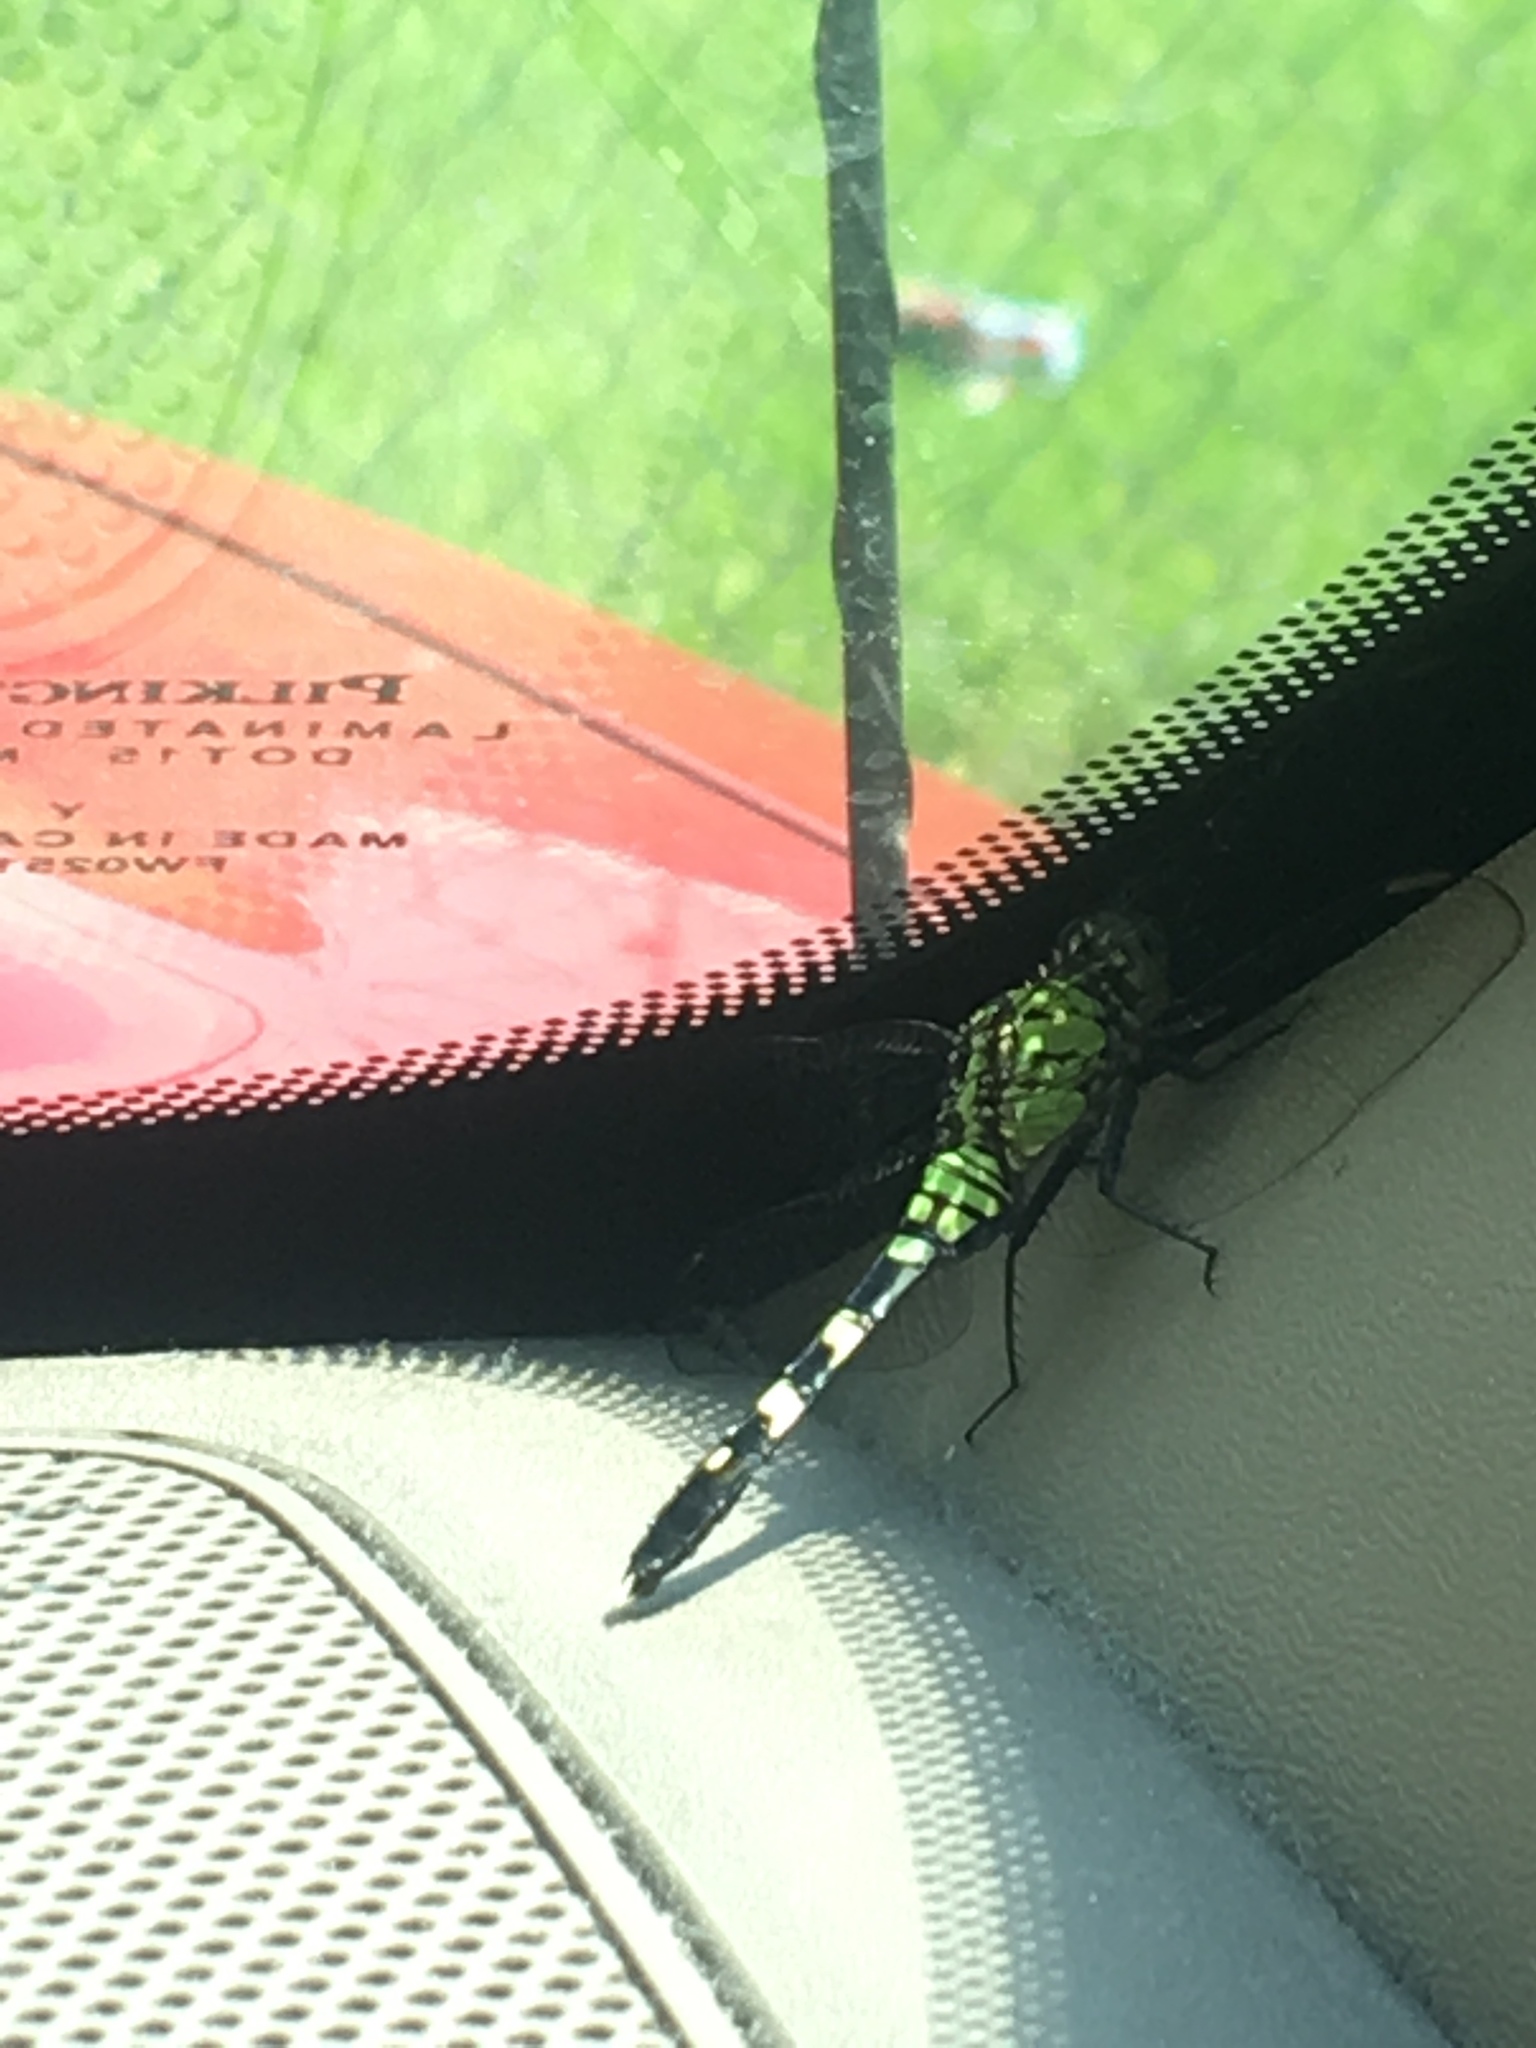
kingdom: Animalia
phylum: Arthropoda
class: Insecta
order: Odonata
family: Libellulidae
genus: Erythemis
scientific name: Erythemis simplicicollis
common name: Eastern pondhawk
